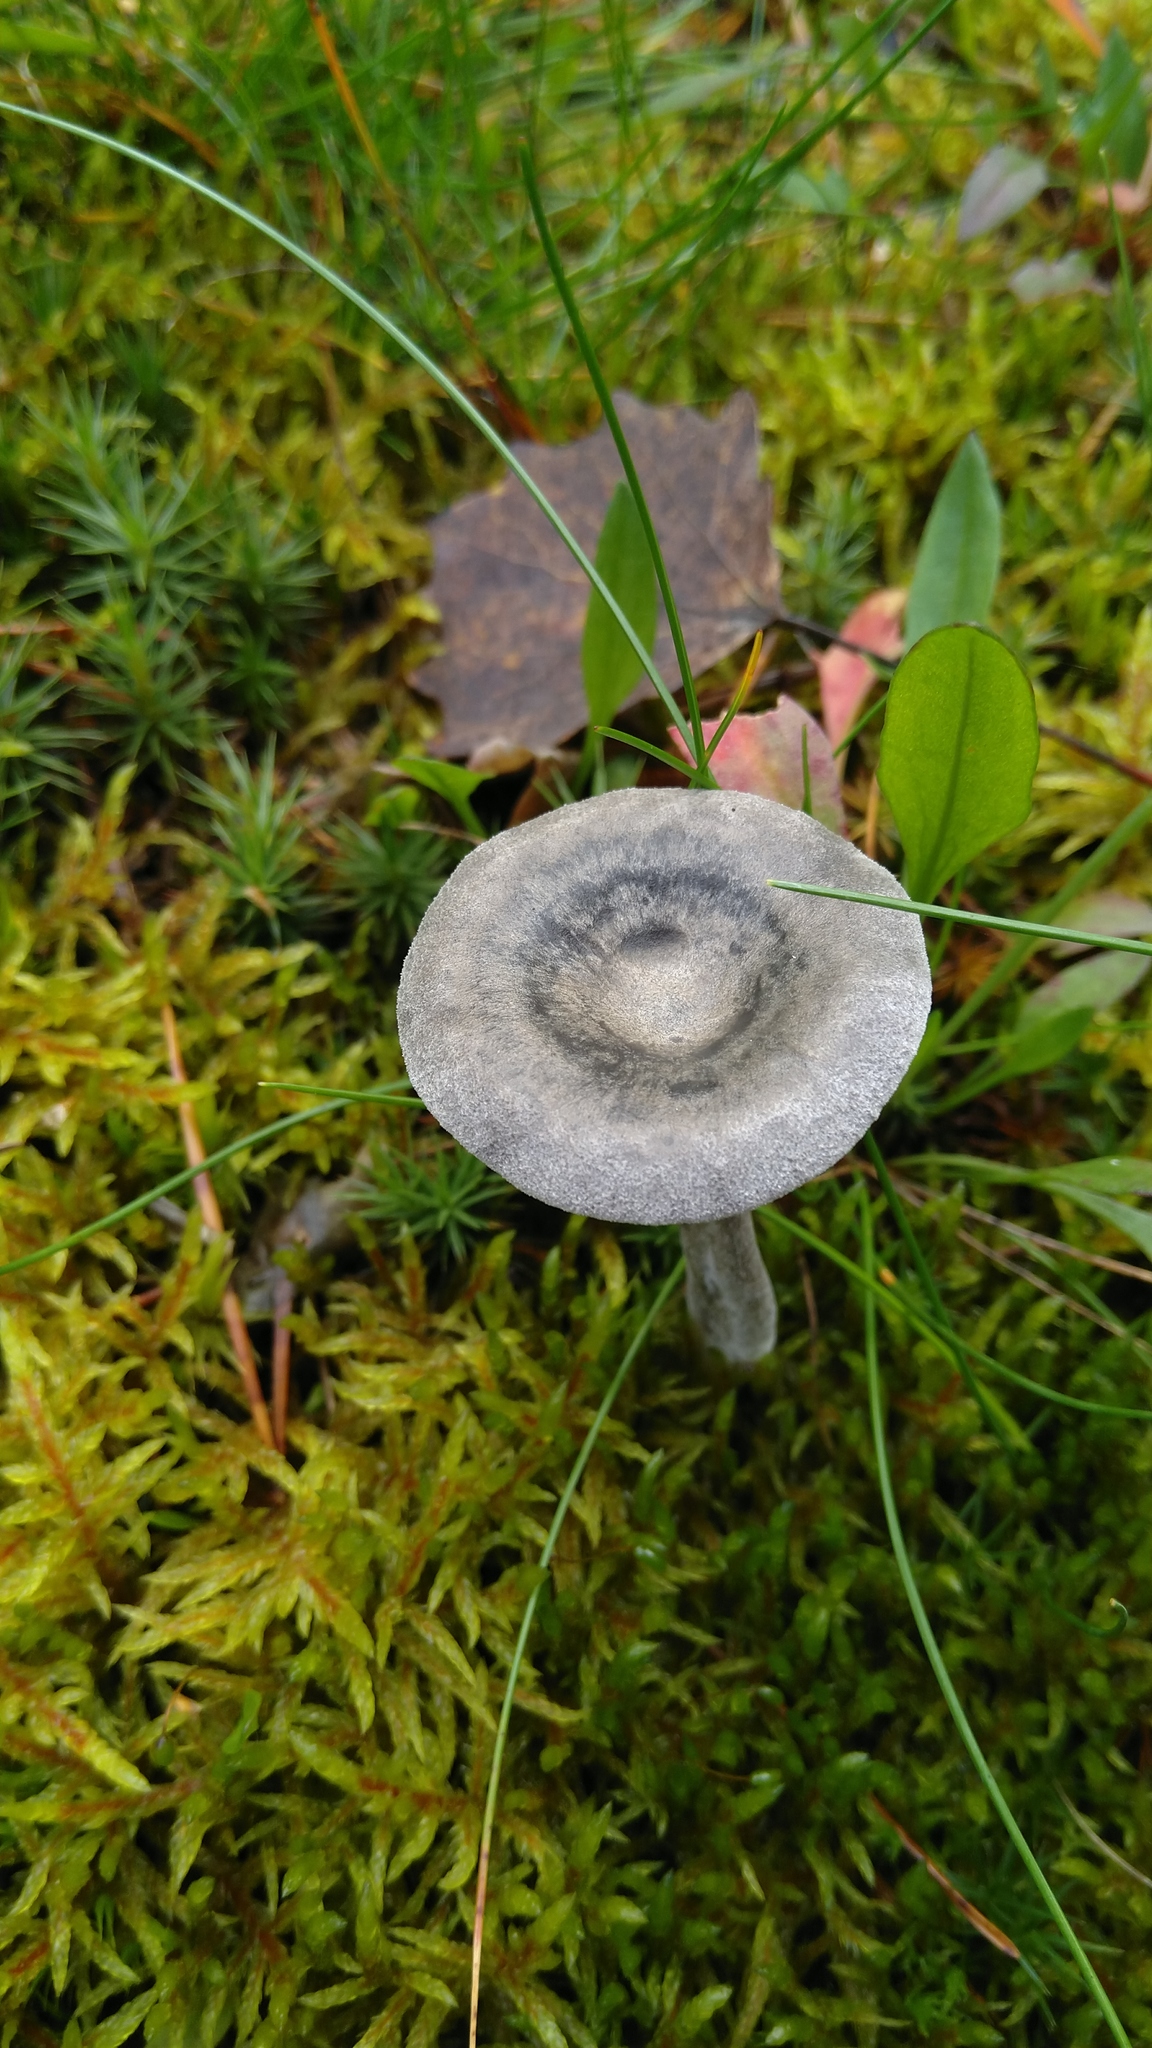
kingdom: Fungi
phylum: Basidiomycota
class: Agaricomycetes
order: Agaricales
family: Hygrophoraceae
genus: Cantharellula
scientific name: Cantharellula umbonata
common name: The humpback
